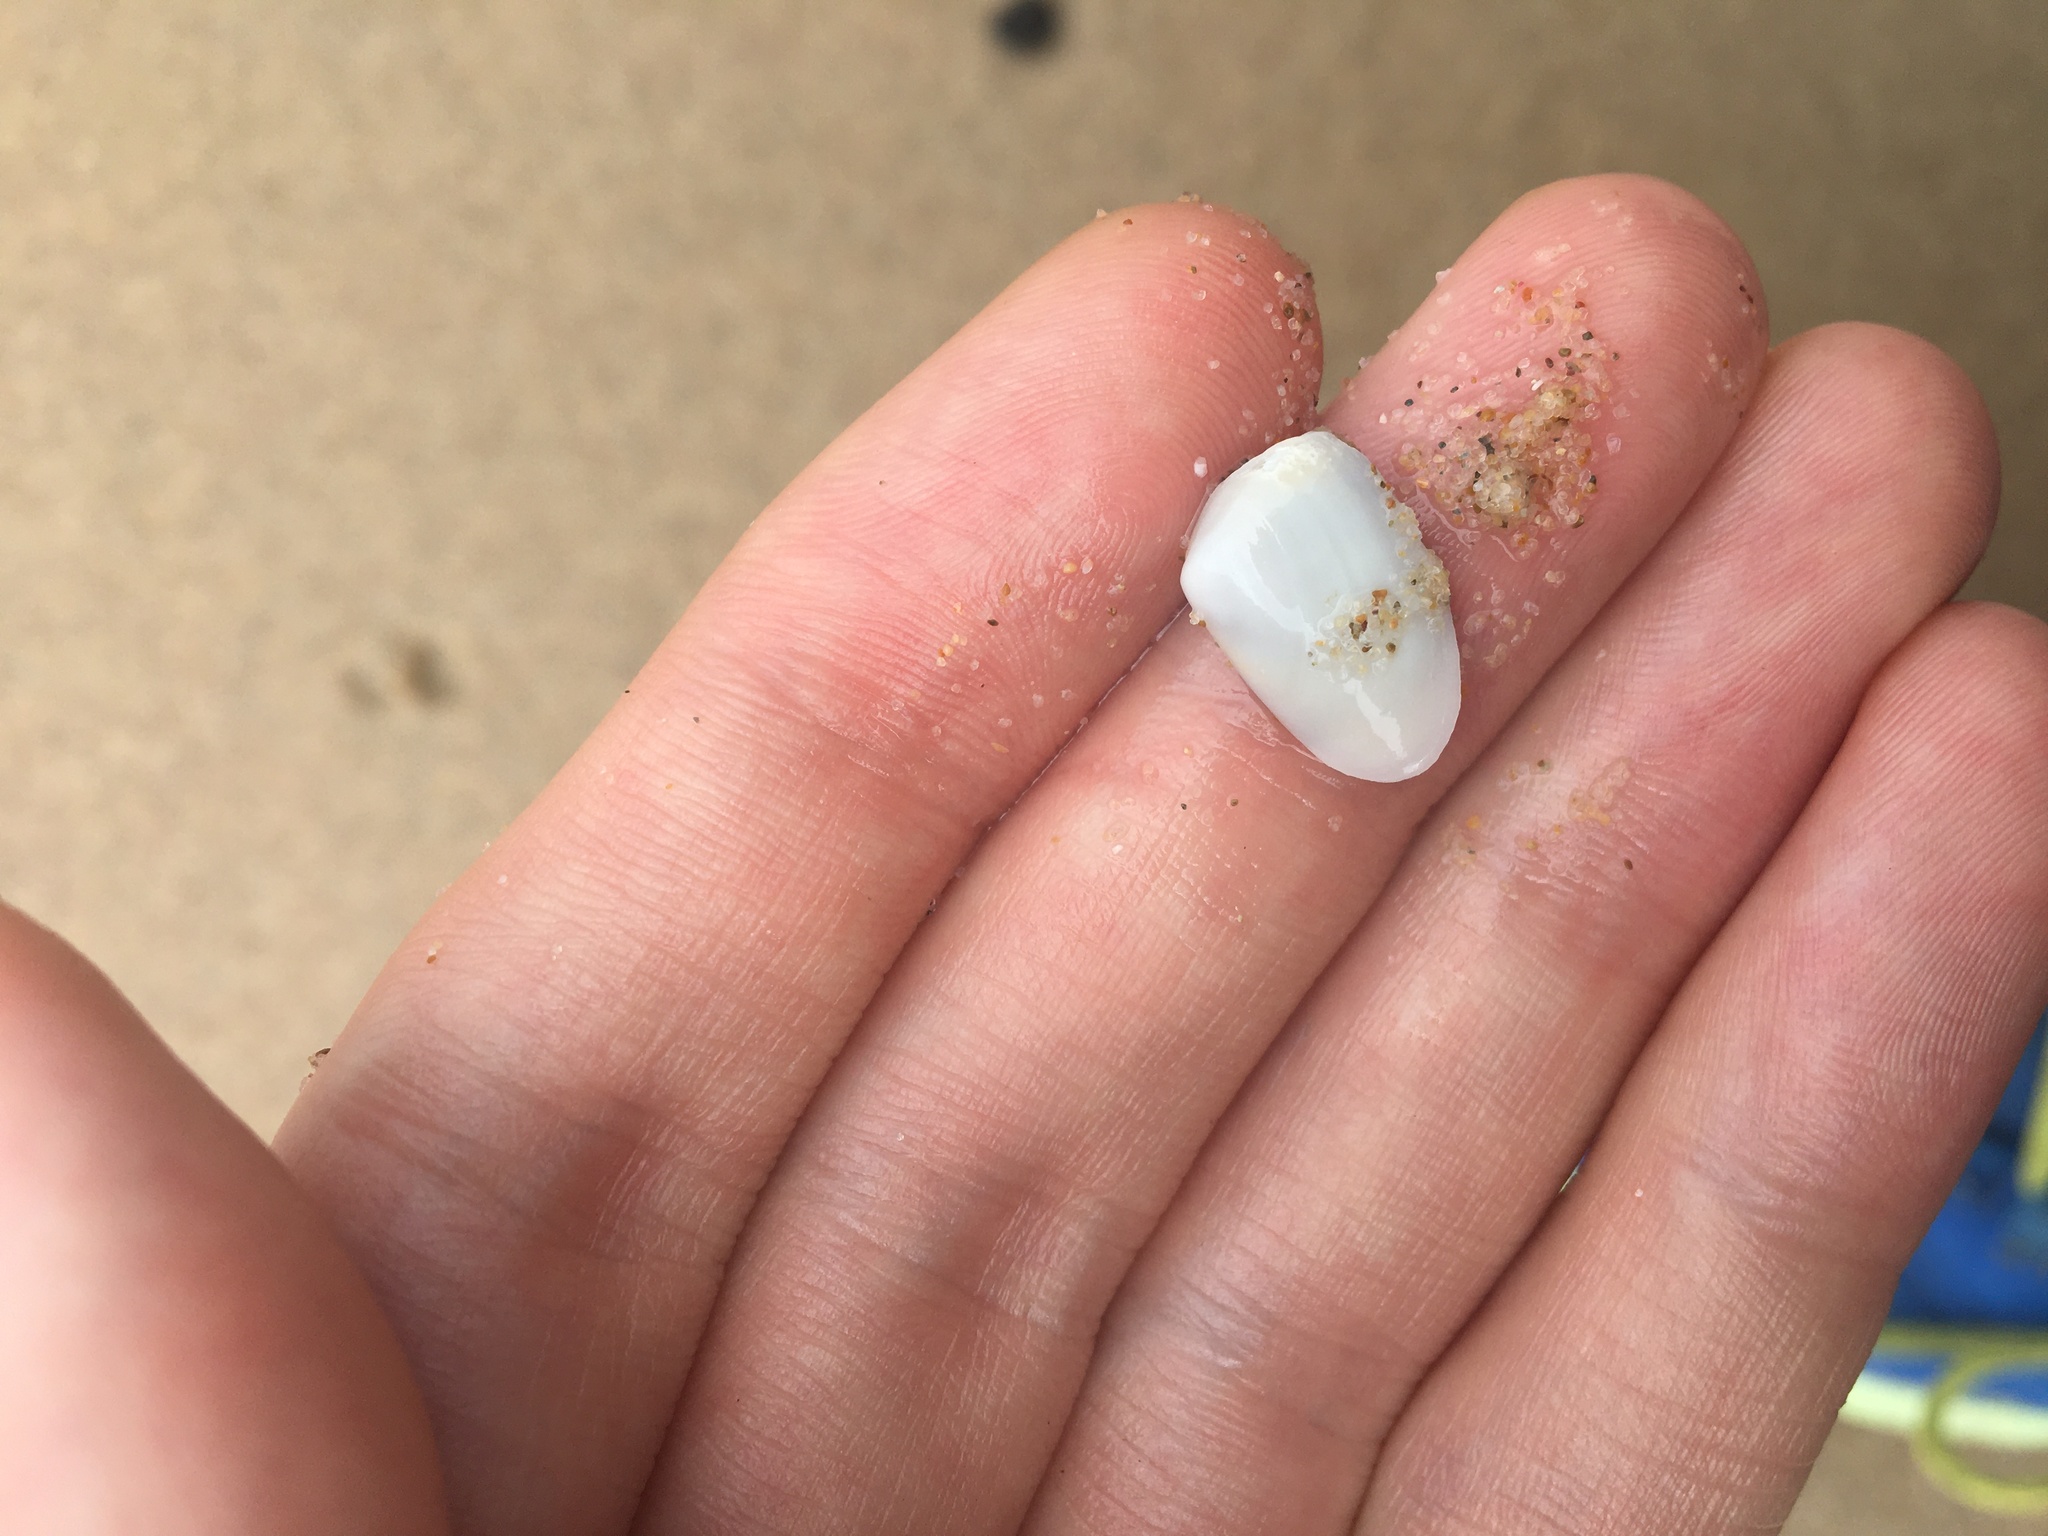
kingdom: Animalia
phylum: Mollusca
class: Bivalvia
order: Venerida
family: Mesodesmatidae
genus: Paphies
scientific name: Paphies angusta
